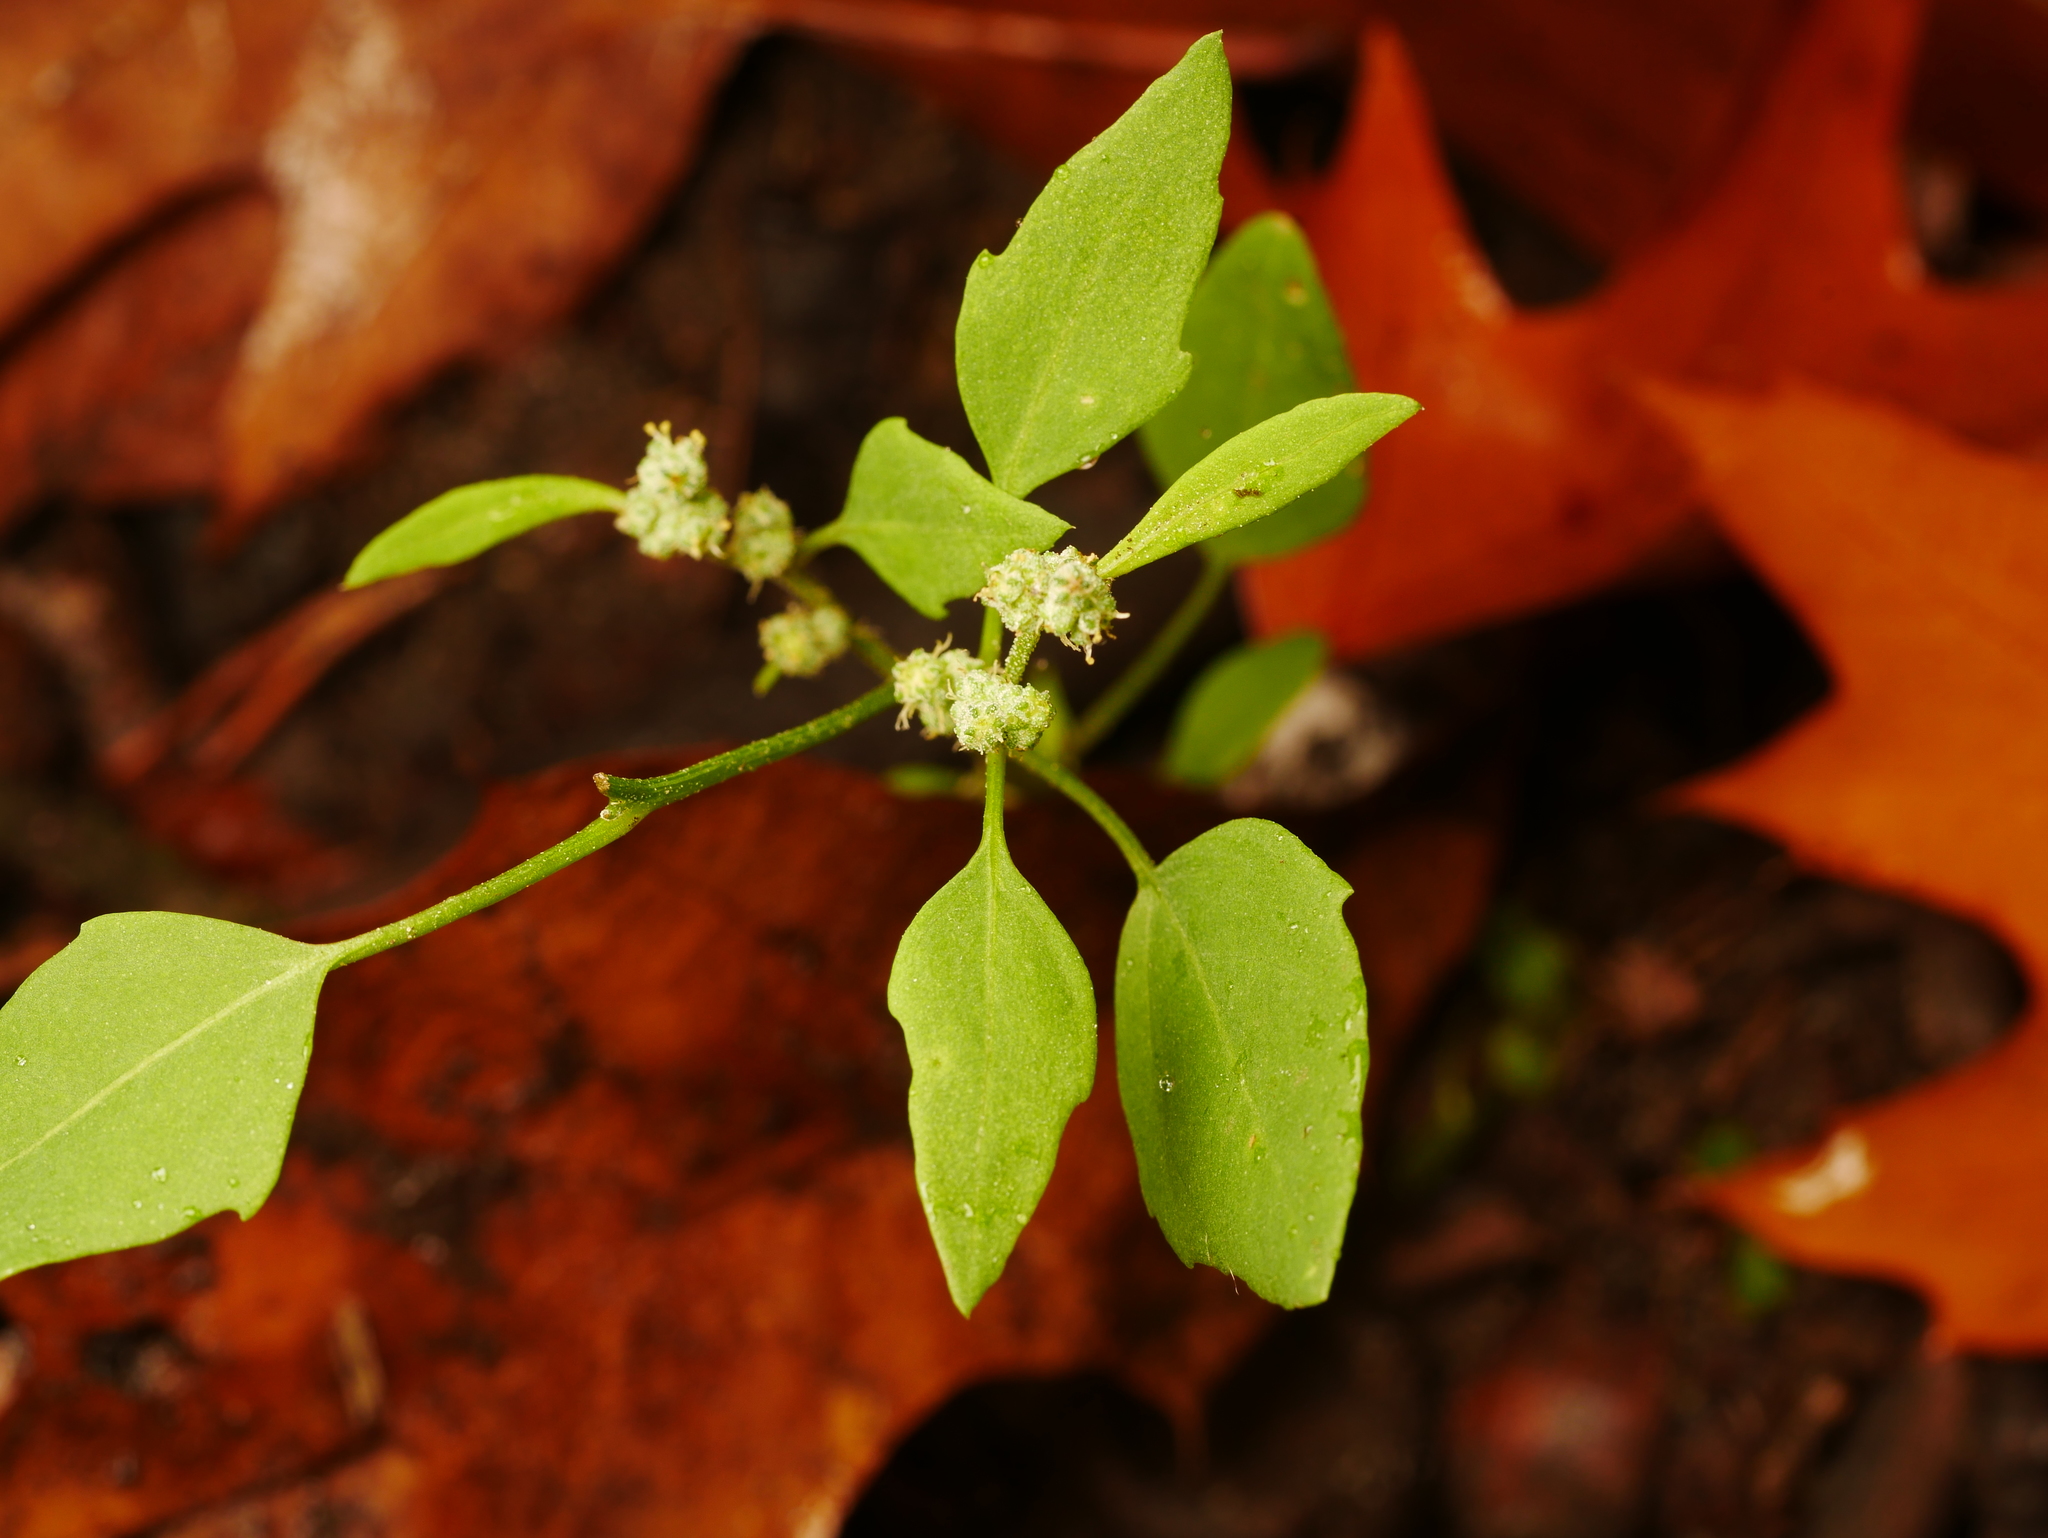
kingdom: Plantae
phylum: Tracheophyta
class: Magnoliopsida
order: Caryophyllales
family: Amaranthaceae
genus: Chenopodium
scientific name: Chenopodium album
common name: Fat-hen
